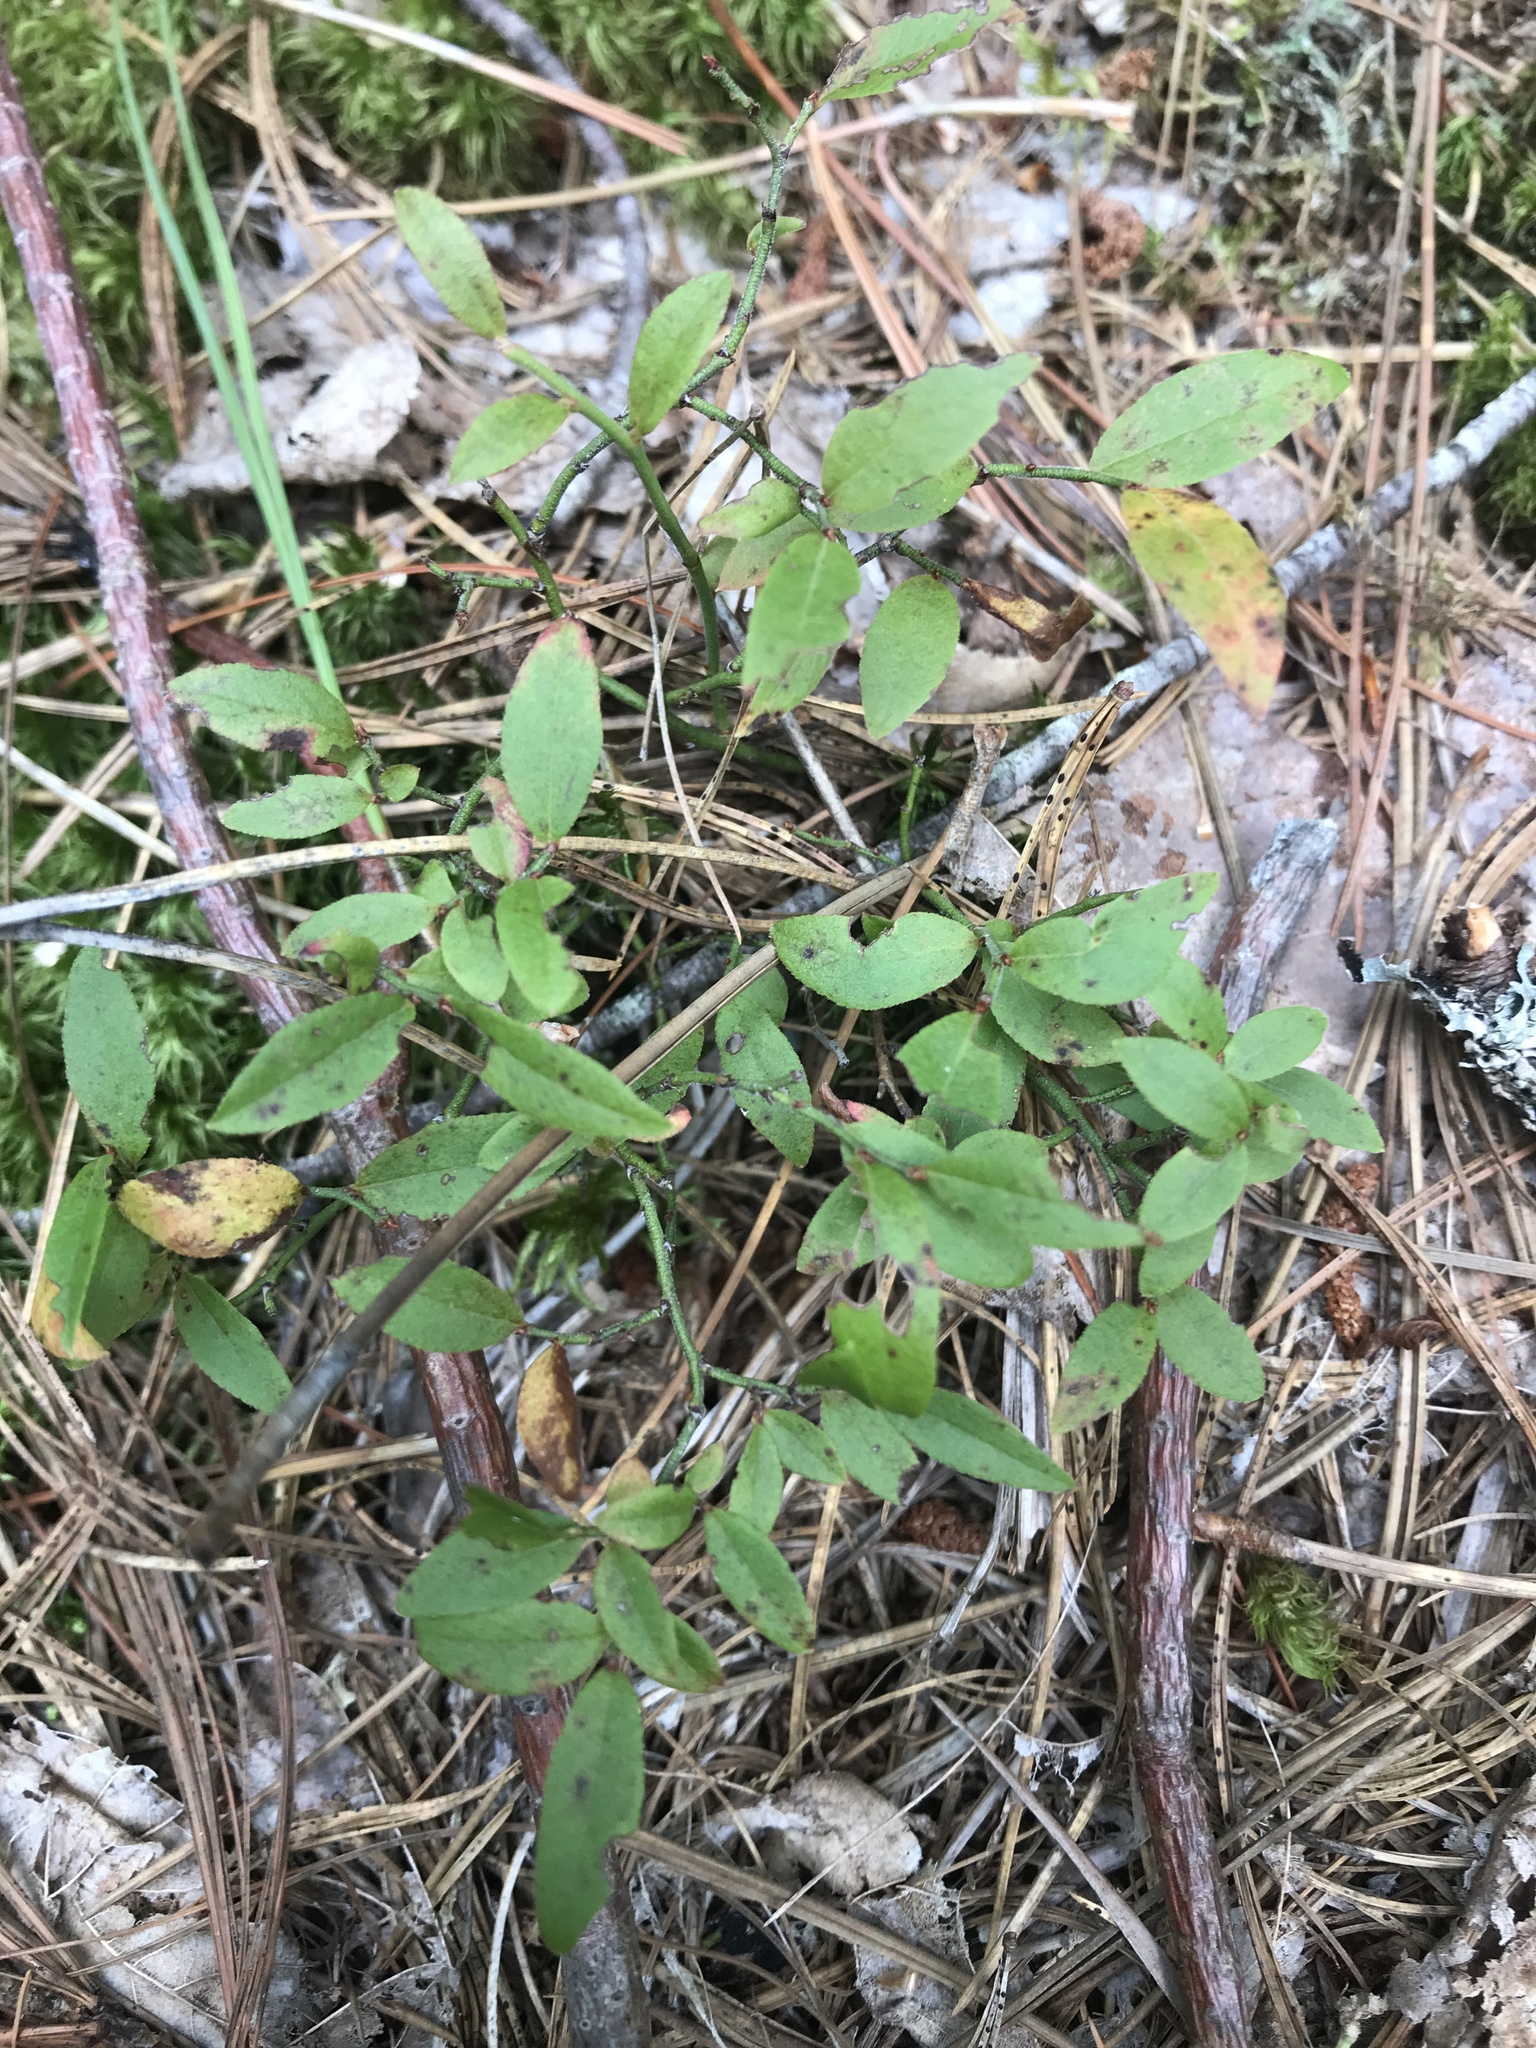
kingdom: Plantae
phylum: Tracheophyta
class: Magnoliopsida
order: Ericales
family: Ericaceae
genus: Vaccinium
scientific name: Vaccinium angustifolium
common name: Early lowbush blueberry
